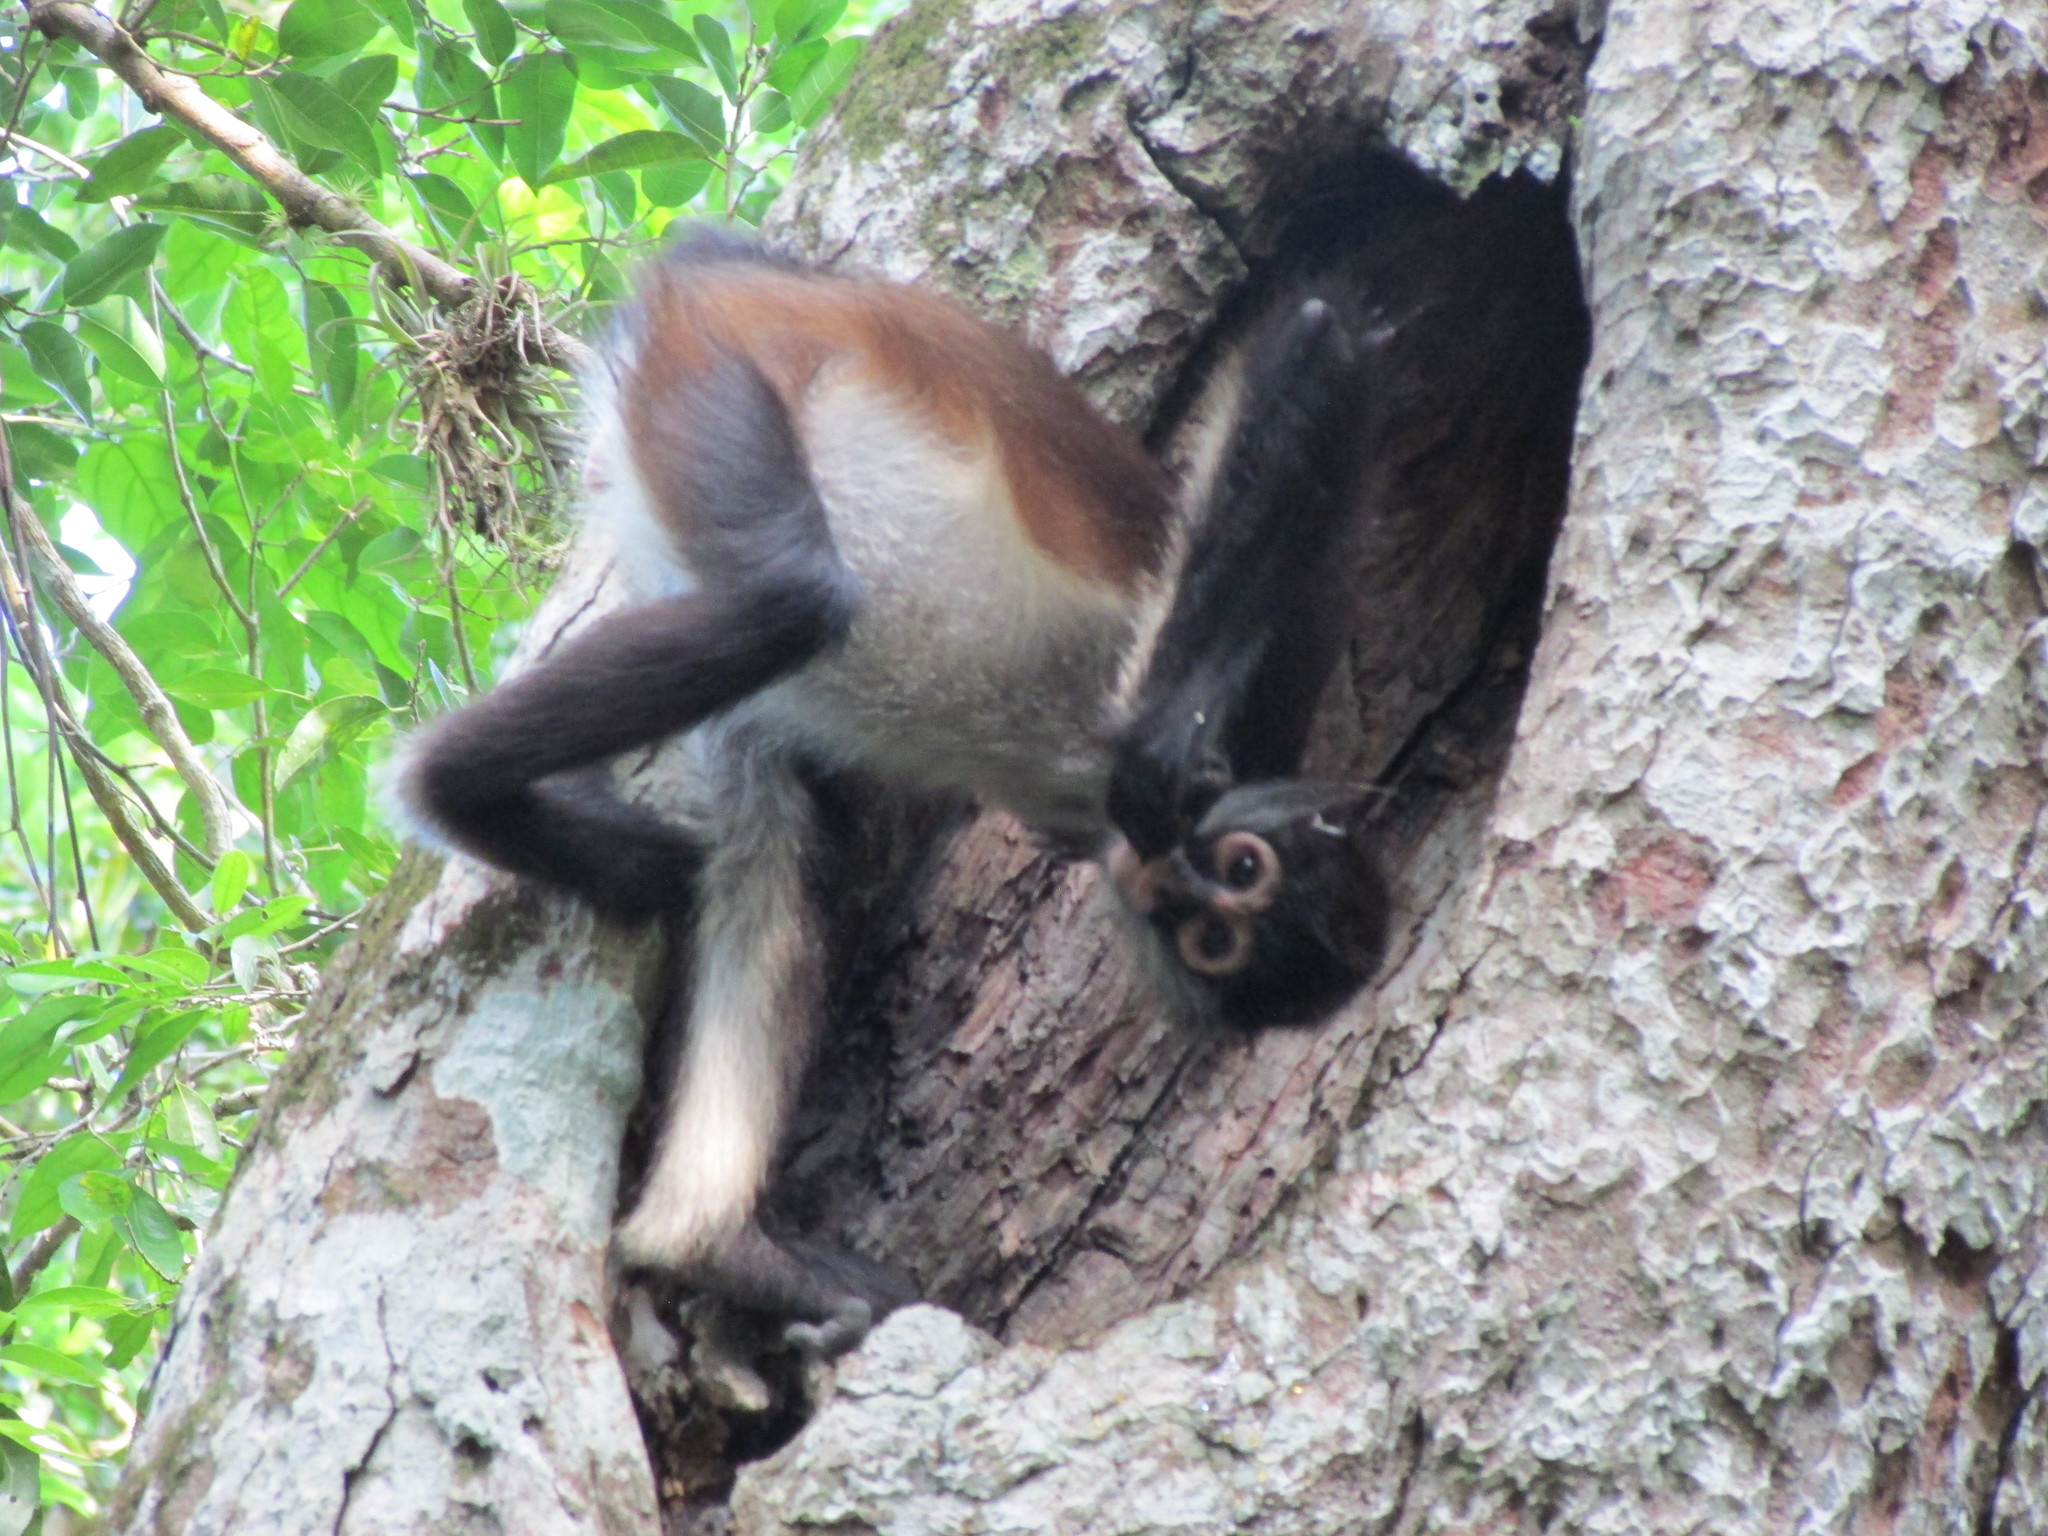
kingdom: Animalia
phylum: Chordata
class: Mammalia
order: Primates
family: Atelidae
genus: Ateles
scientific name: Ateles geoffroyi
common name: Black-handed spider monkey
